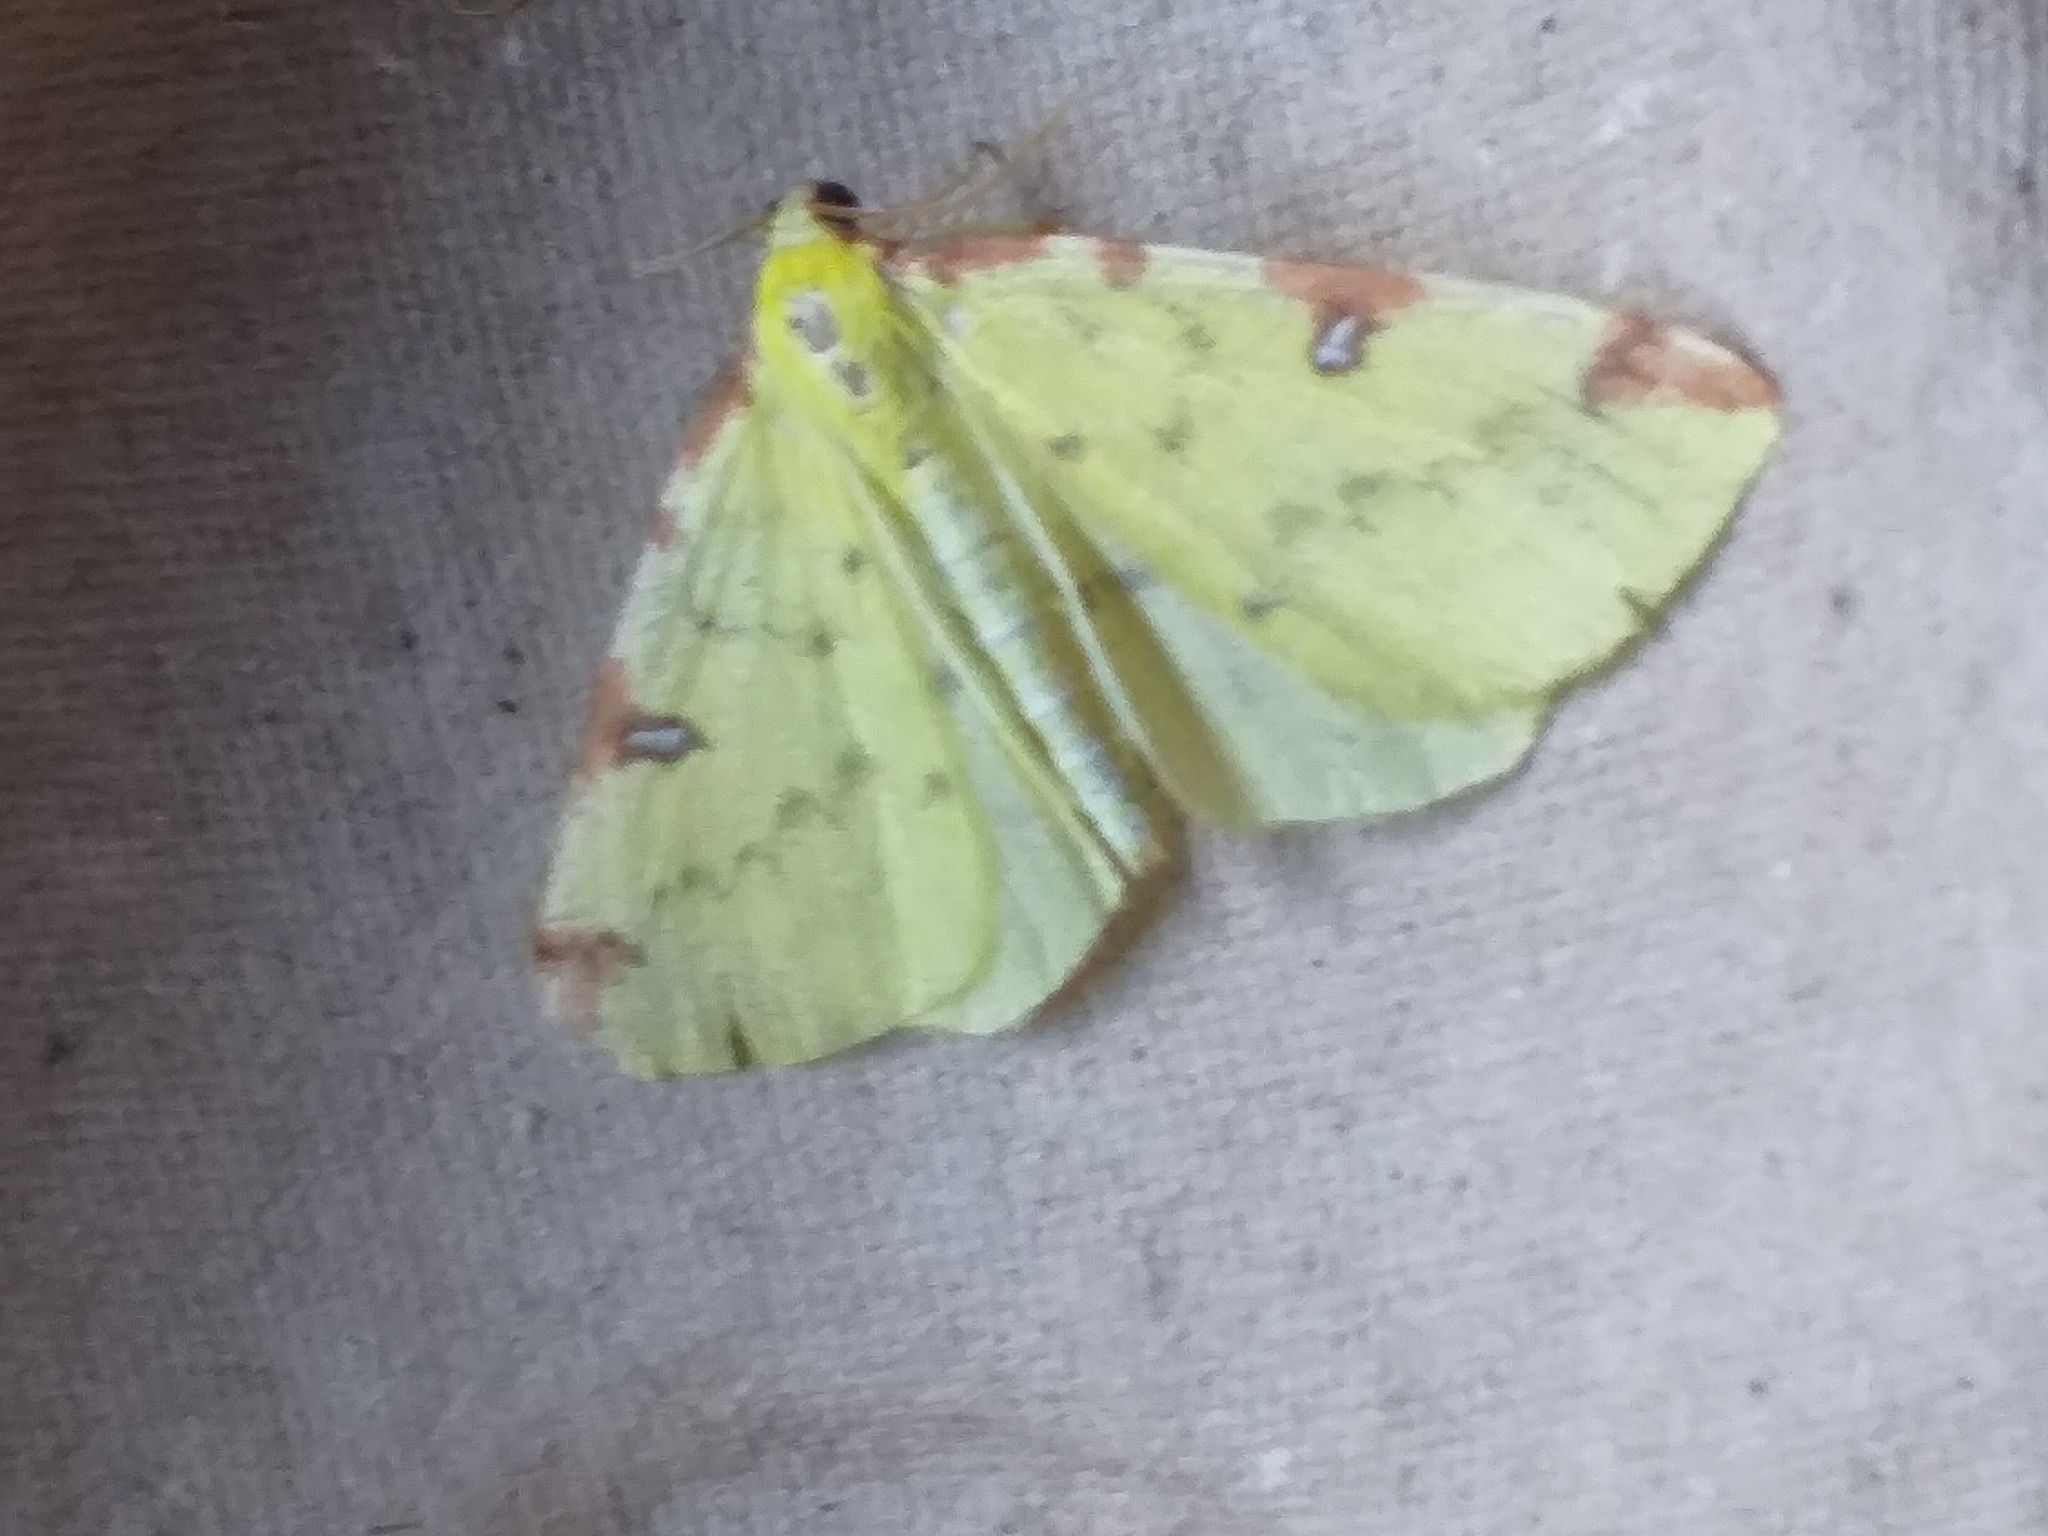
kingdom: Animalia
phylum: Arthropoda
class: Insecta
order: Lepidoptera
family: Geometridae
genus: Opisthograptis
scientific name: Opisthograptis luteolata
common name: Brimstone moth
